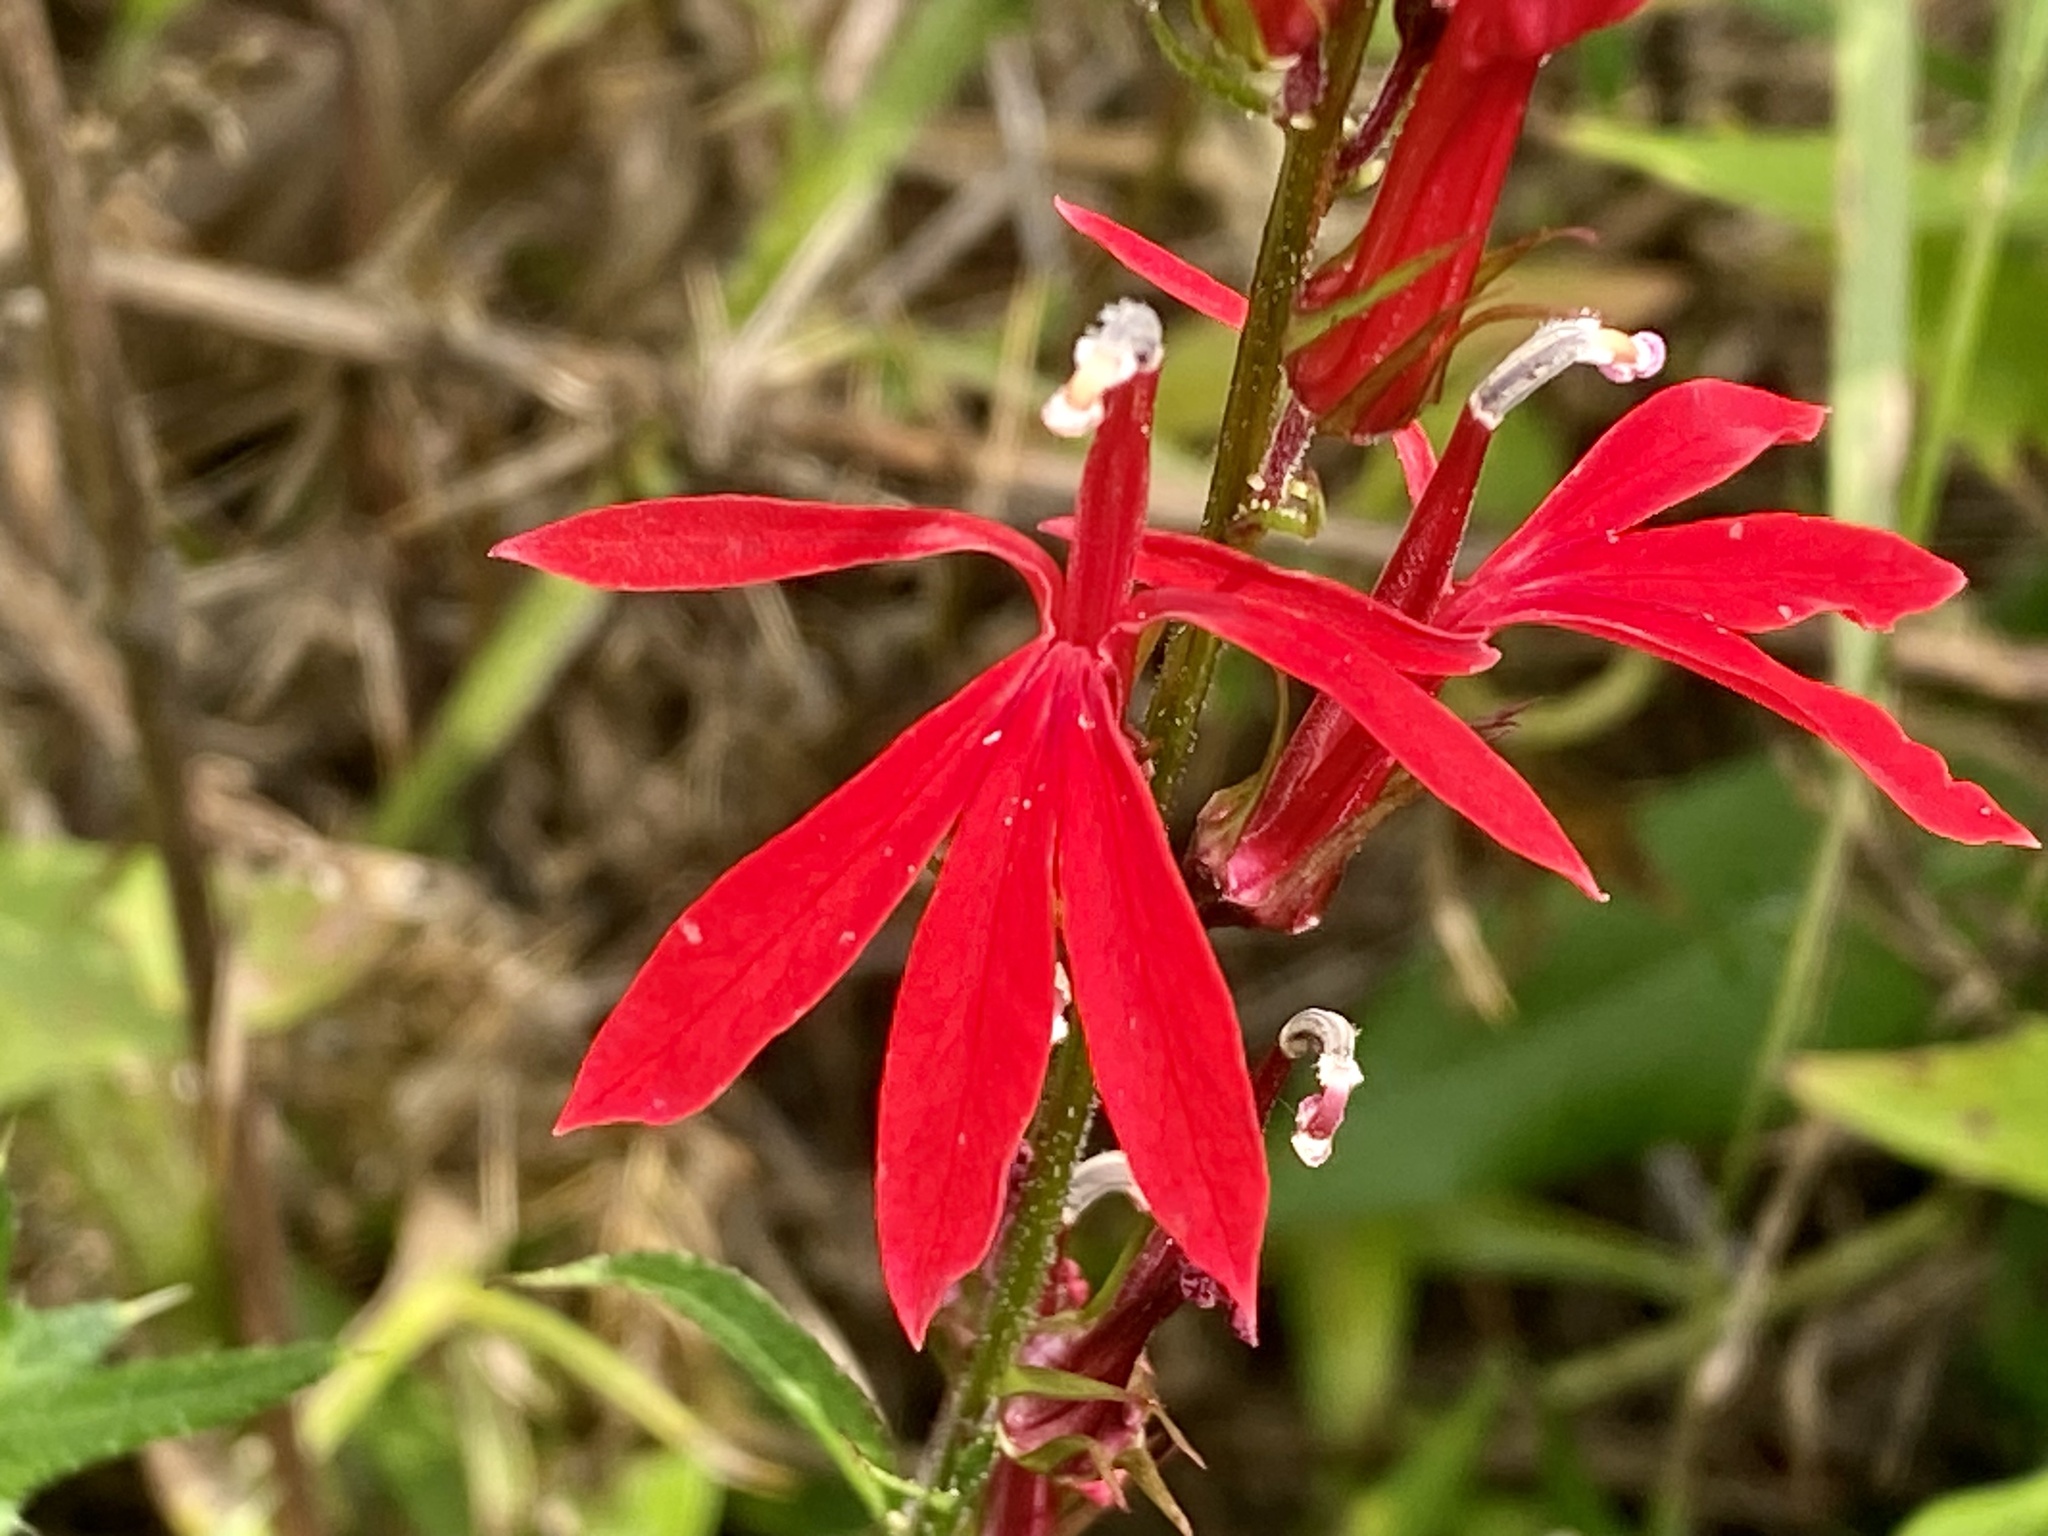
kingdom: Plantae
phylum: Tracheophyta
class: Magnoliopsida
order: Asterales
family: Campanulaceae
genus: Lobelia
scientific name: Lobelia cardinalis
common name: Cardinal flower
